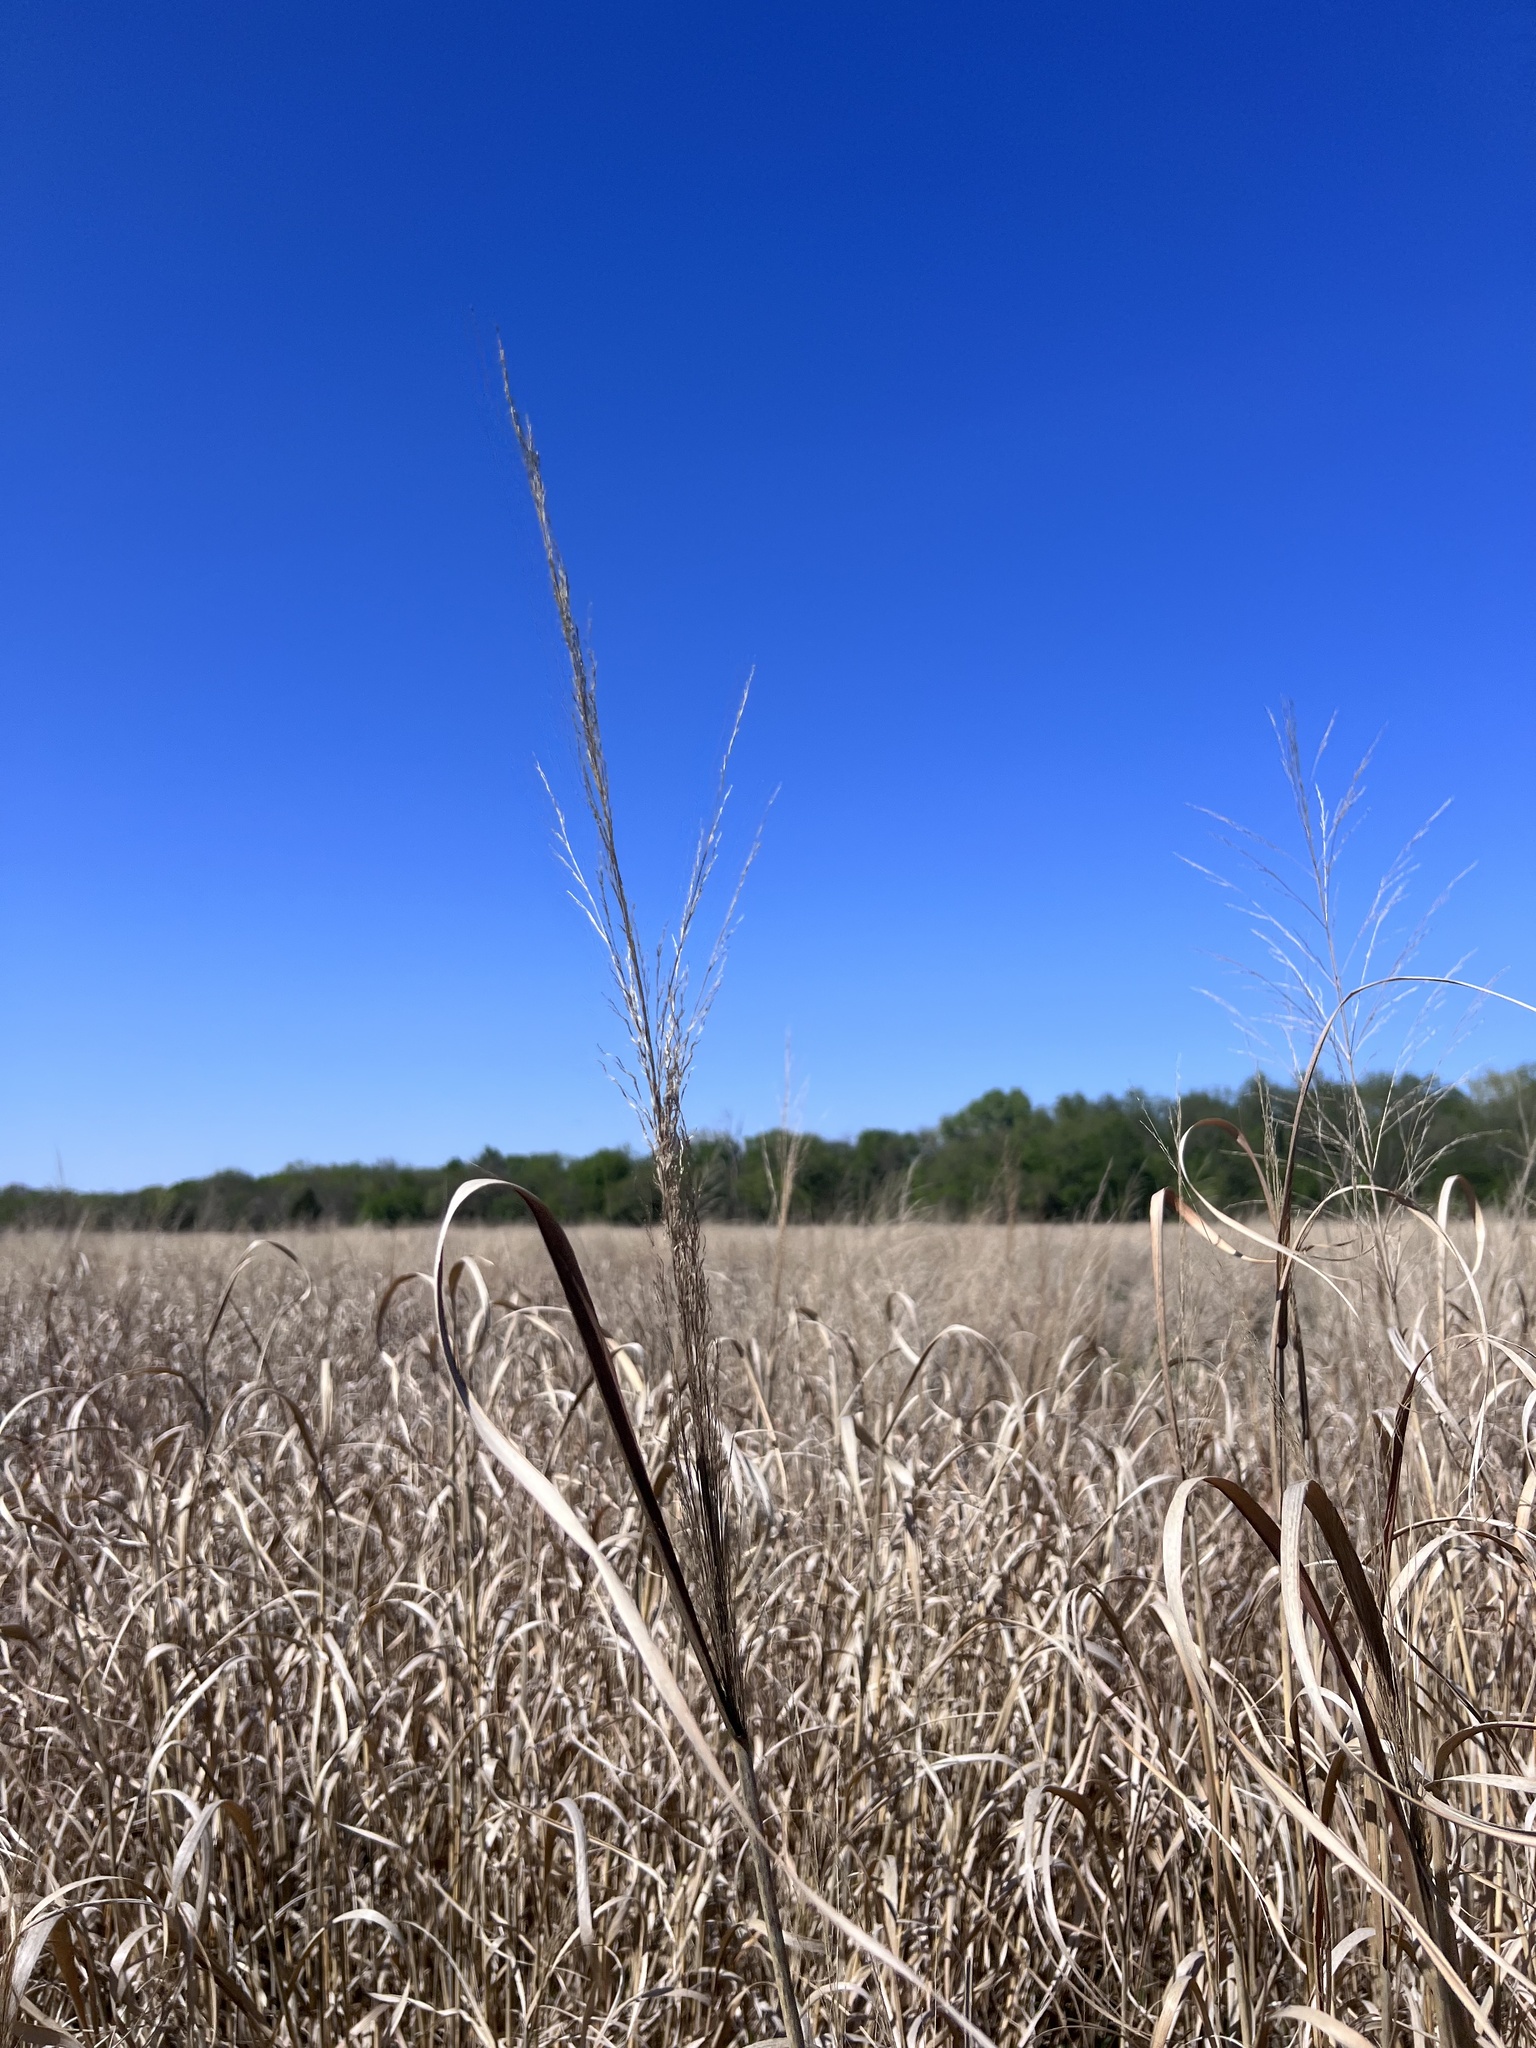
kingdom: Plantae
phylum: Tracheophyta
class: Liliopsida
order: Poales
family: Poaceae
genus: Panicum
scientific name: Panicum virgatum
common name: Switchgrass
